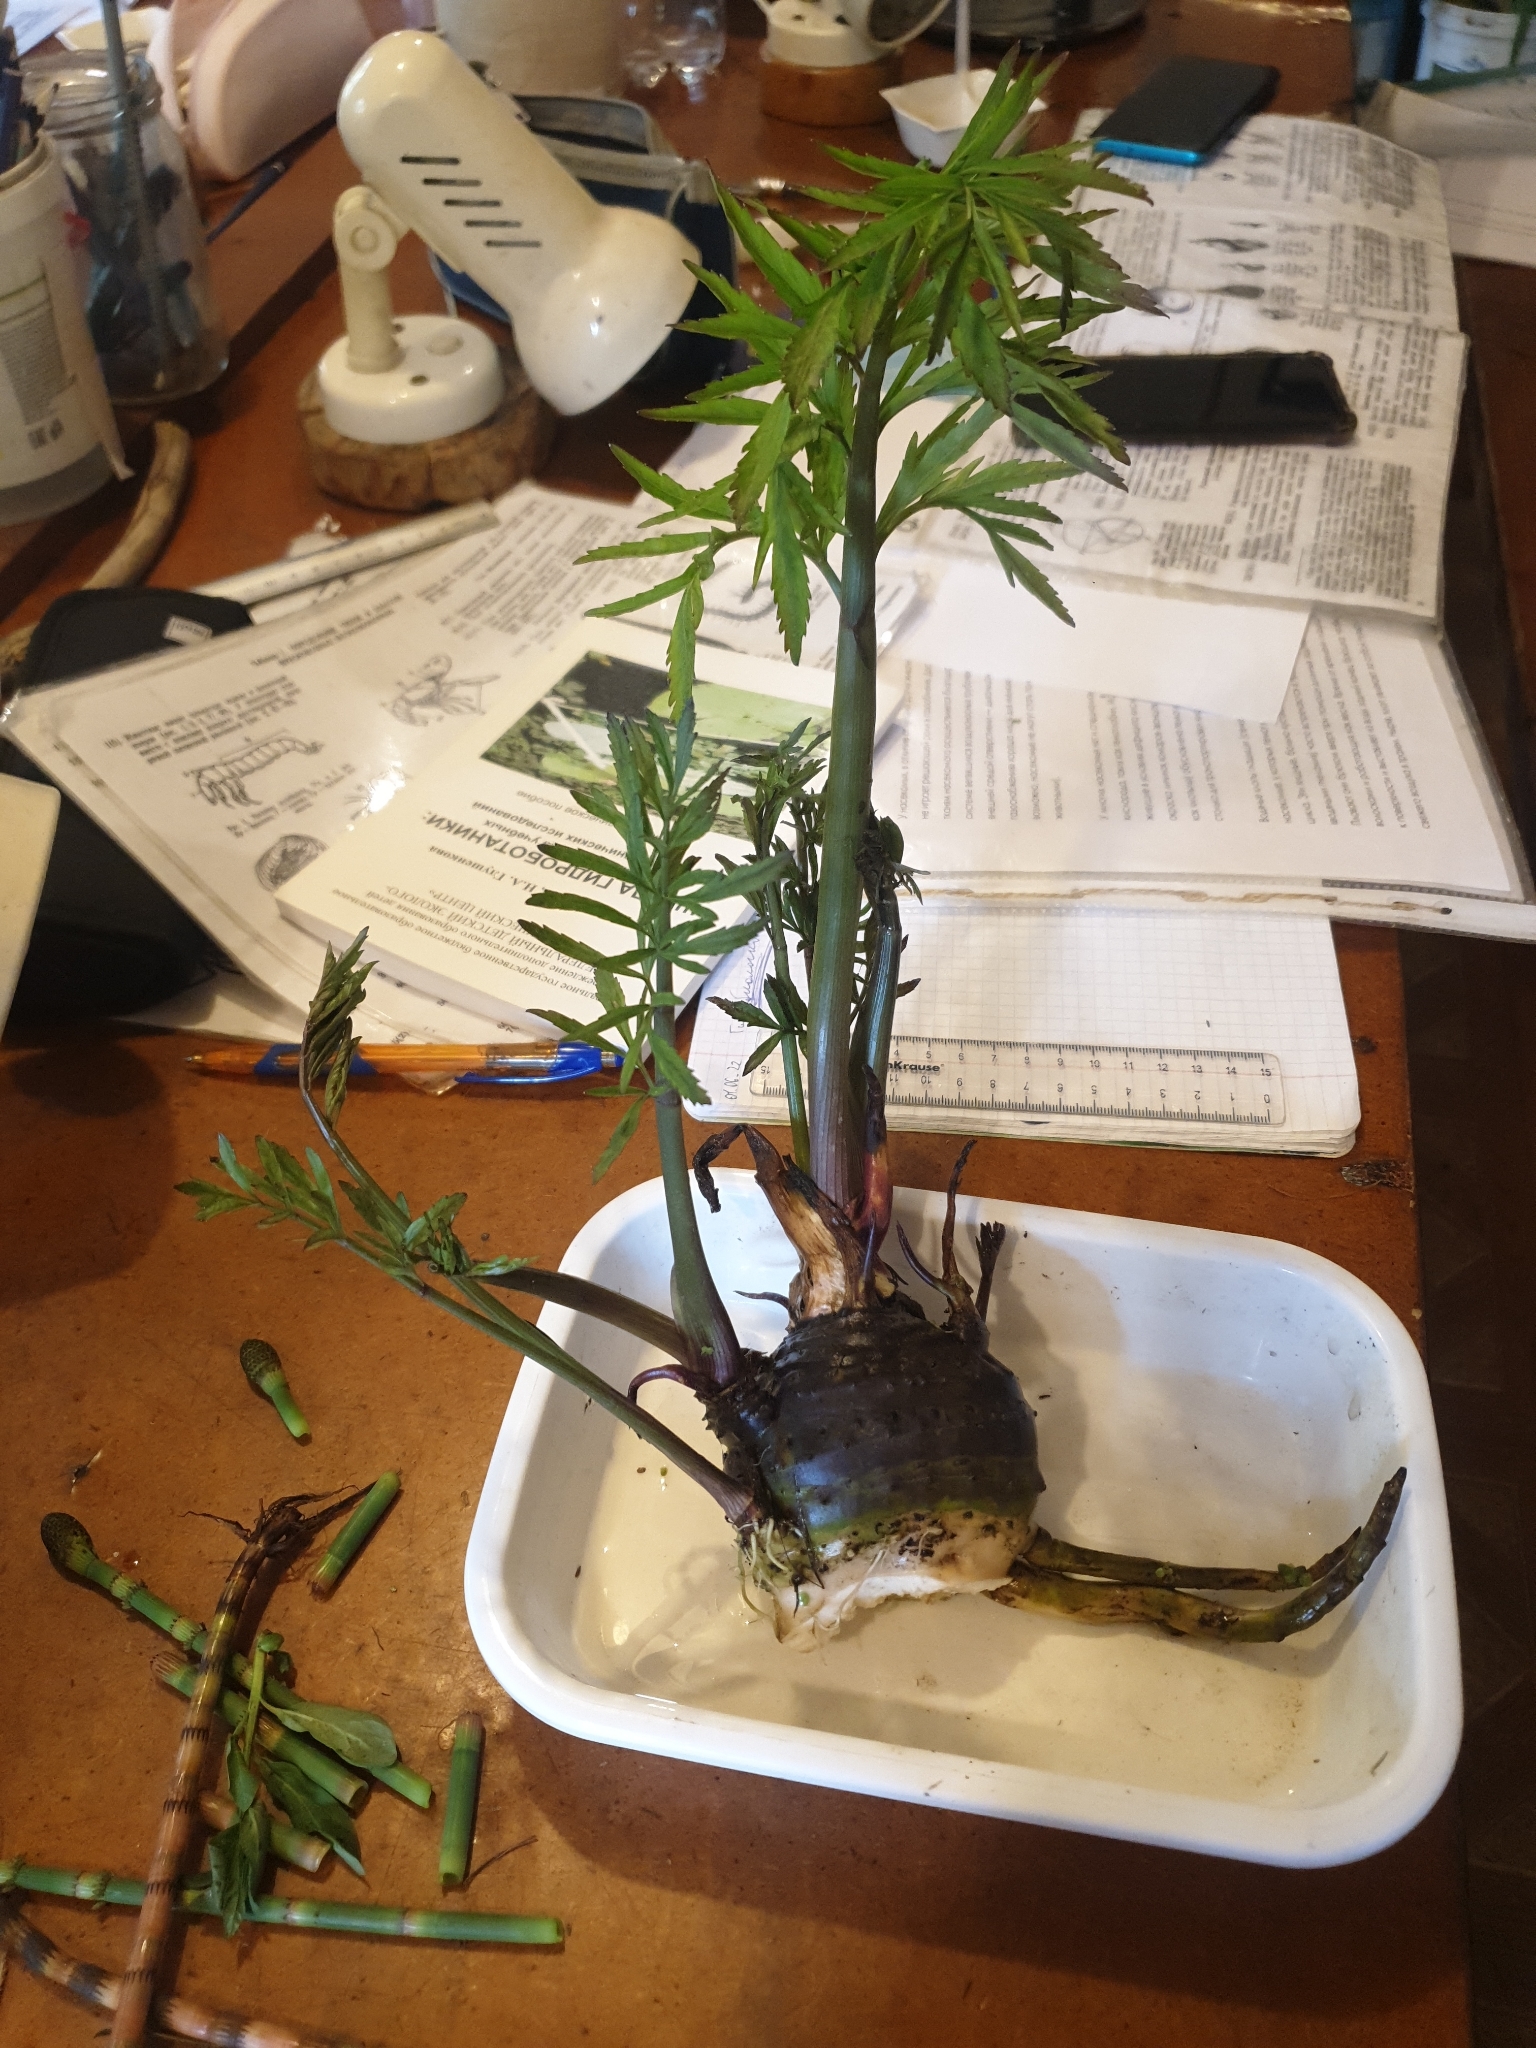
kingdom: Plantae
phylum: Tracheophyta
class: Magnoliopsida
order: Apiales
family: Apiaceae
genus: Cicuta
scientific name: Cicuta virosa
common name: Cowbane
